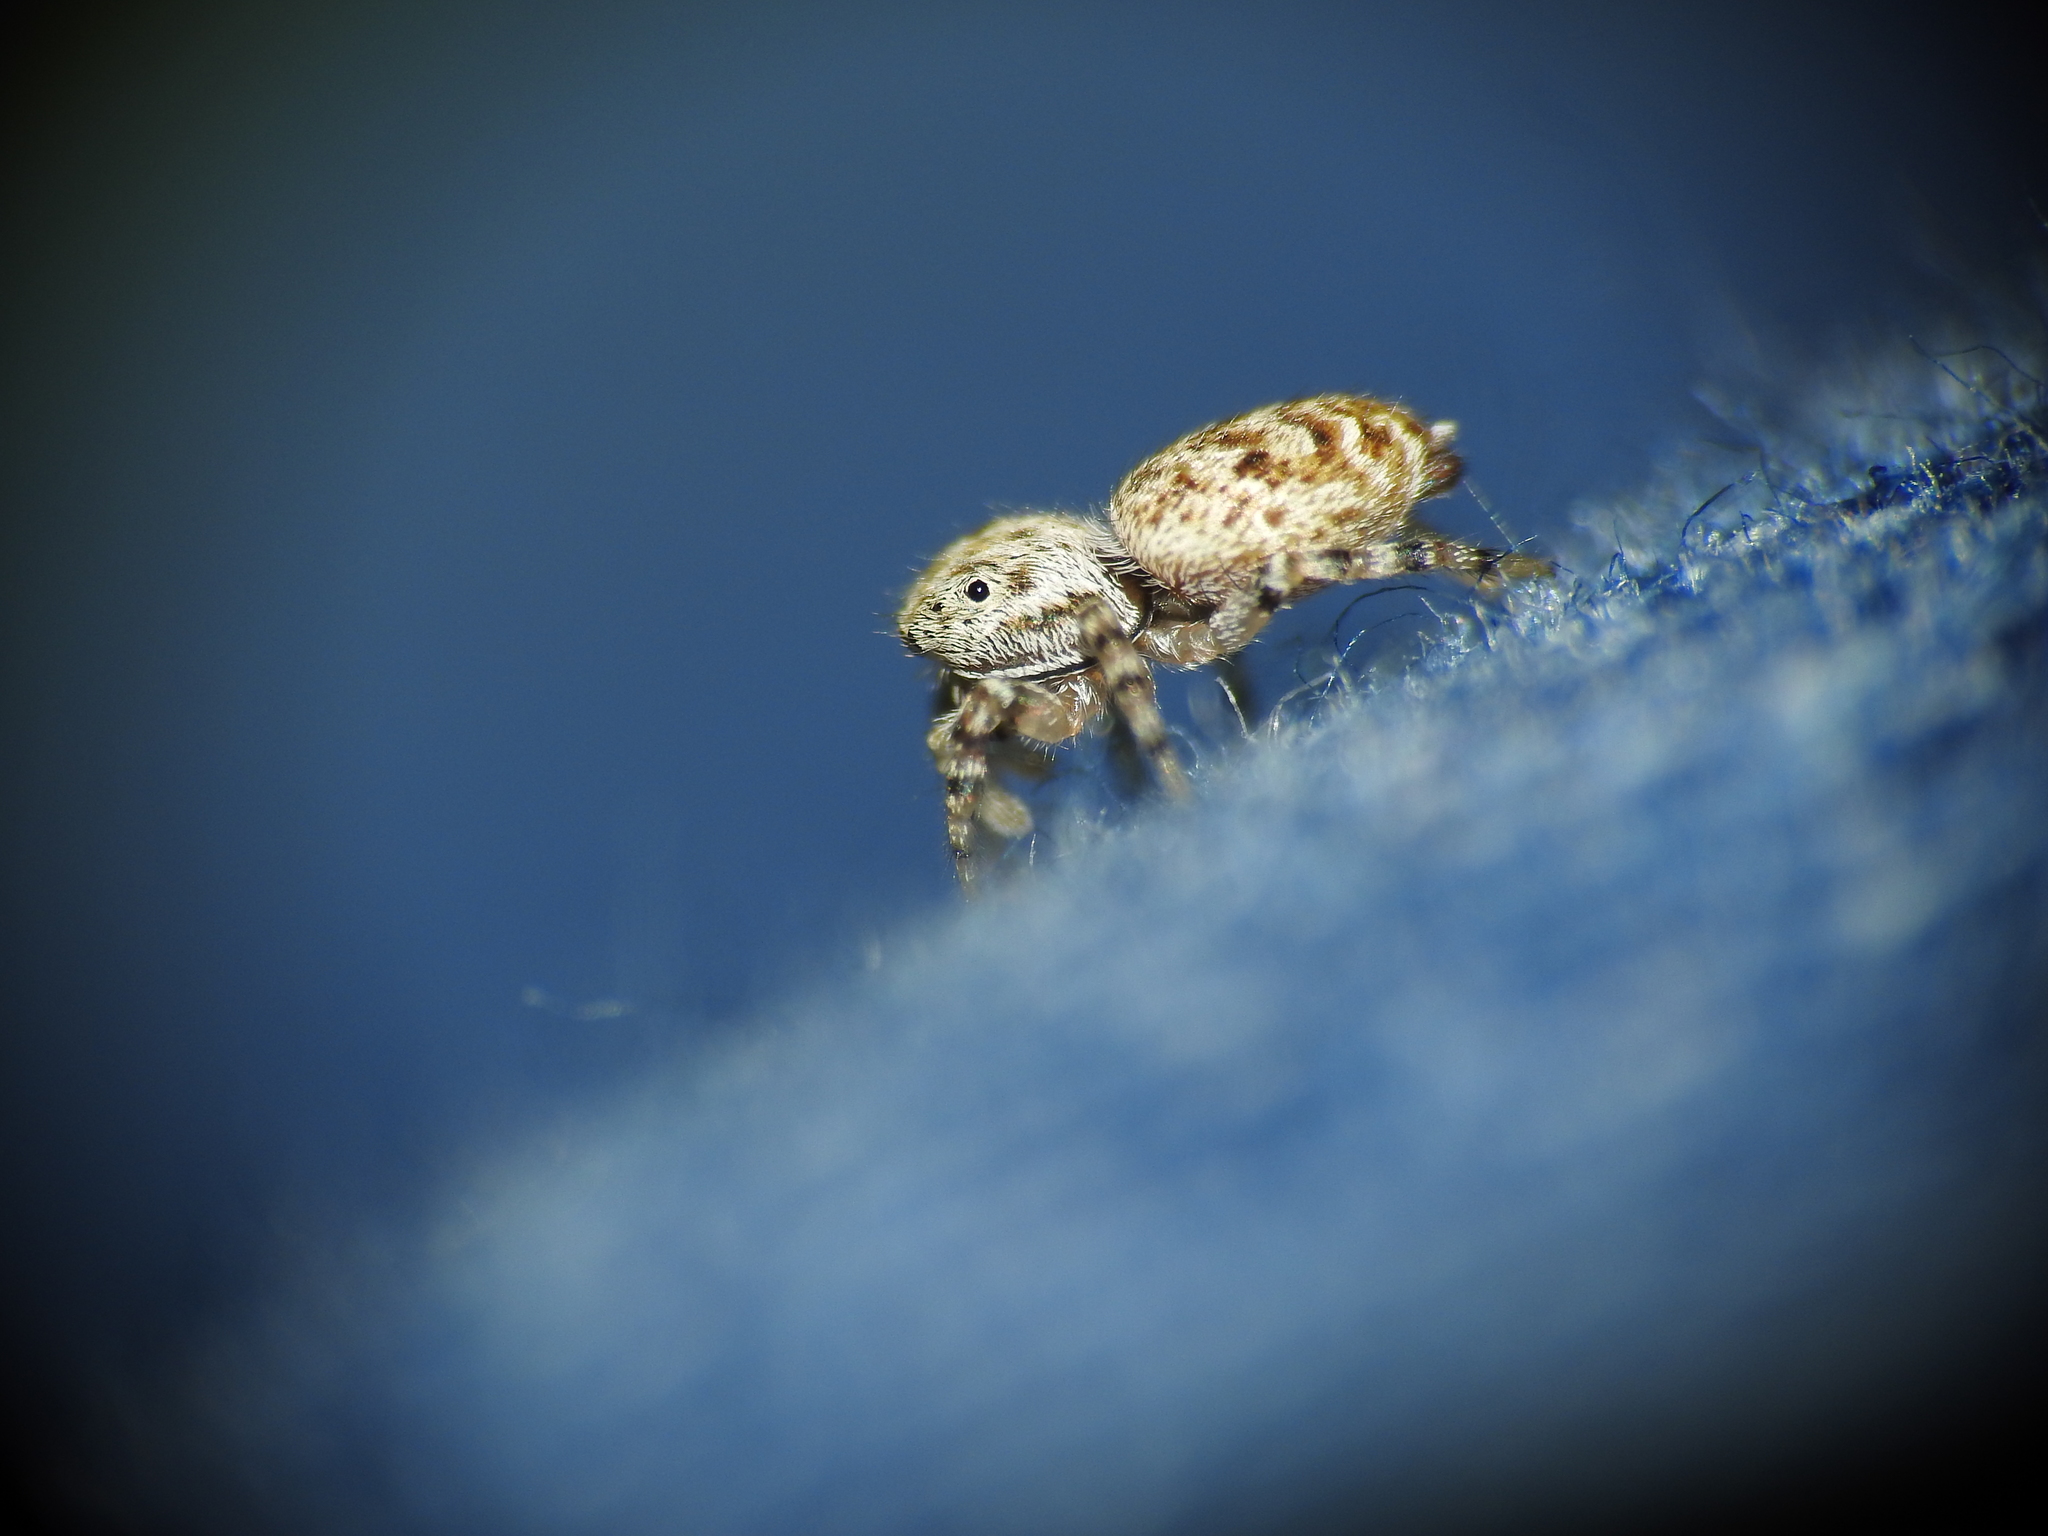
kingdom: Animalia
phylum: Arthropoda
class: Arachnida
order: Araneae
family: Salticidae
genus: Pelegrina
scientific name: Pelegrina galathea
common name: Jumping spiders
